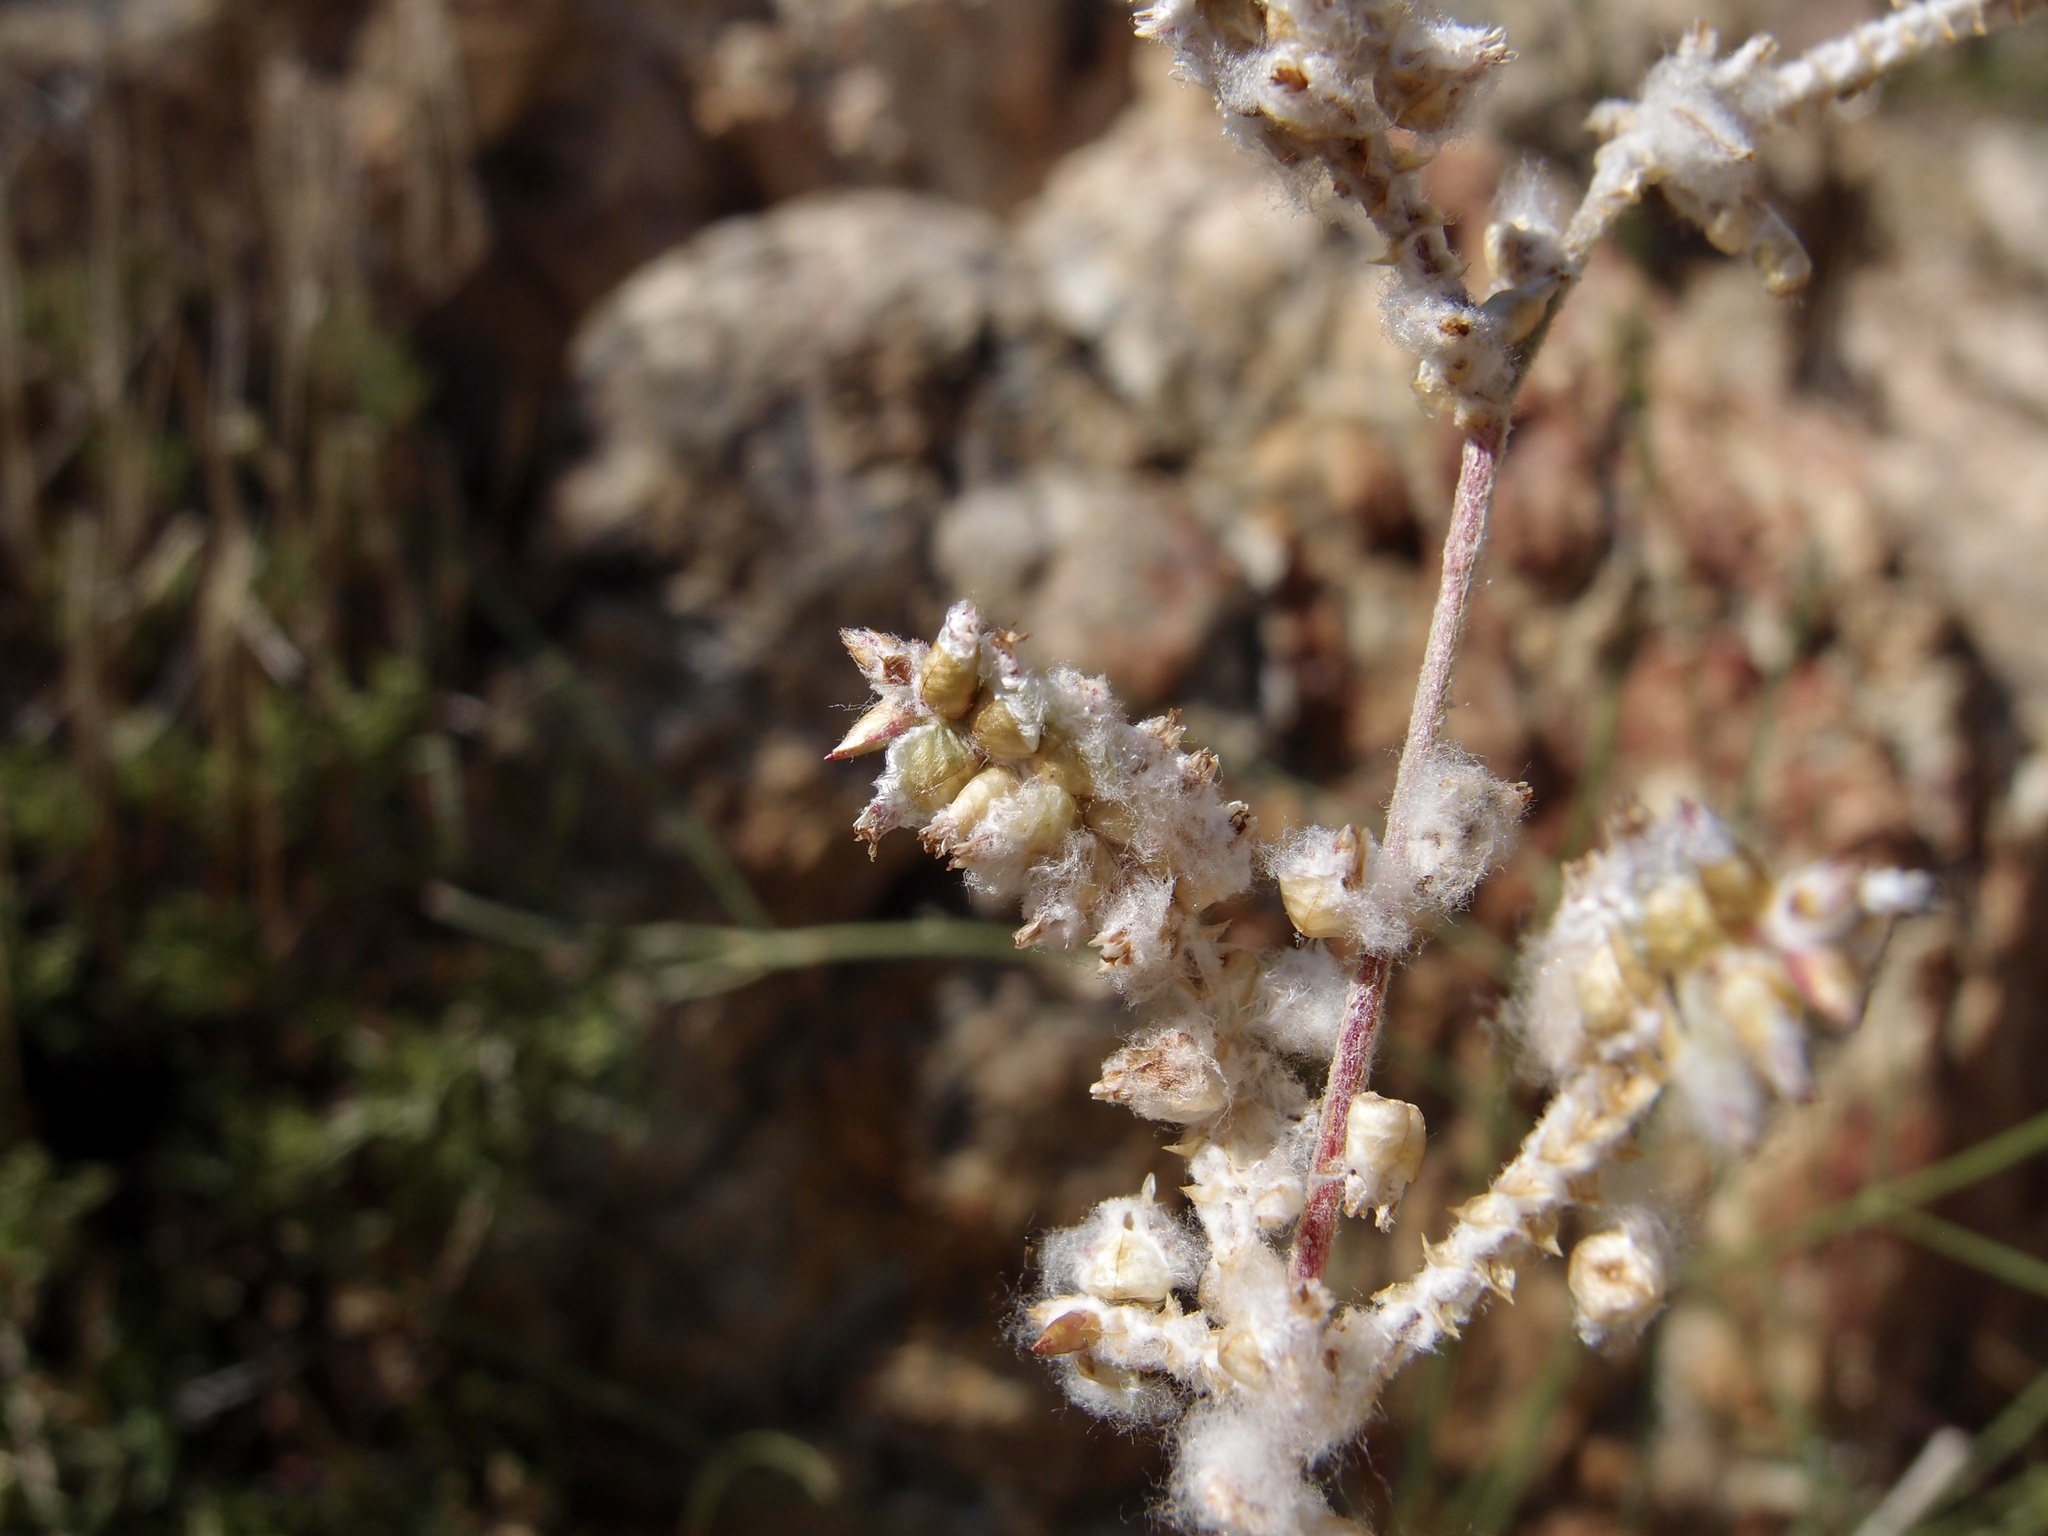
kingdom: Plantae
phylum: Tracheophyta
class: Magnoliopsida
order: Caryophyllales
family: Amaranthaceae
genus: Froelichia
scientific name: Froelichia interrupta
